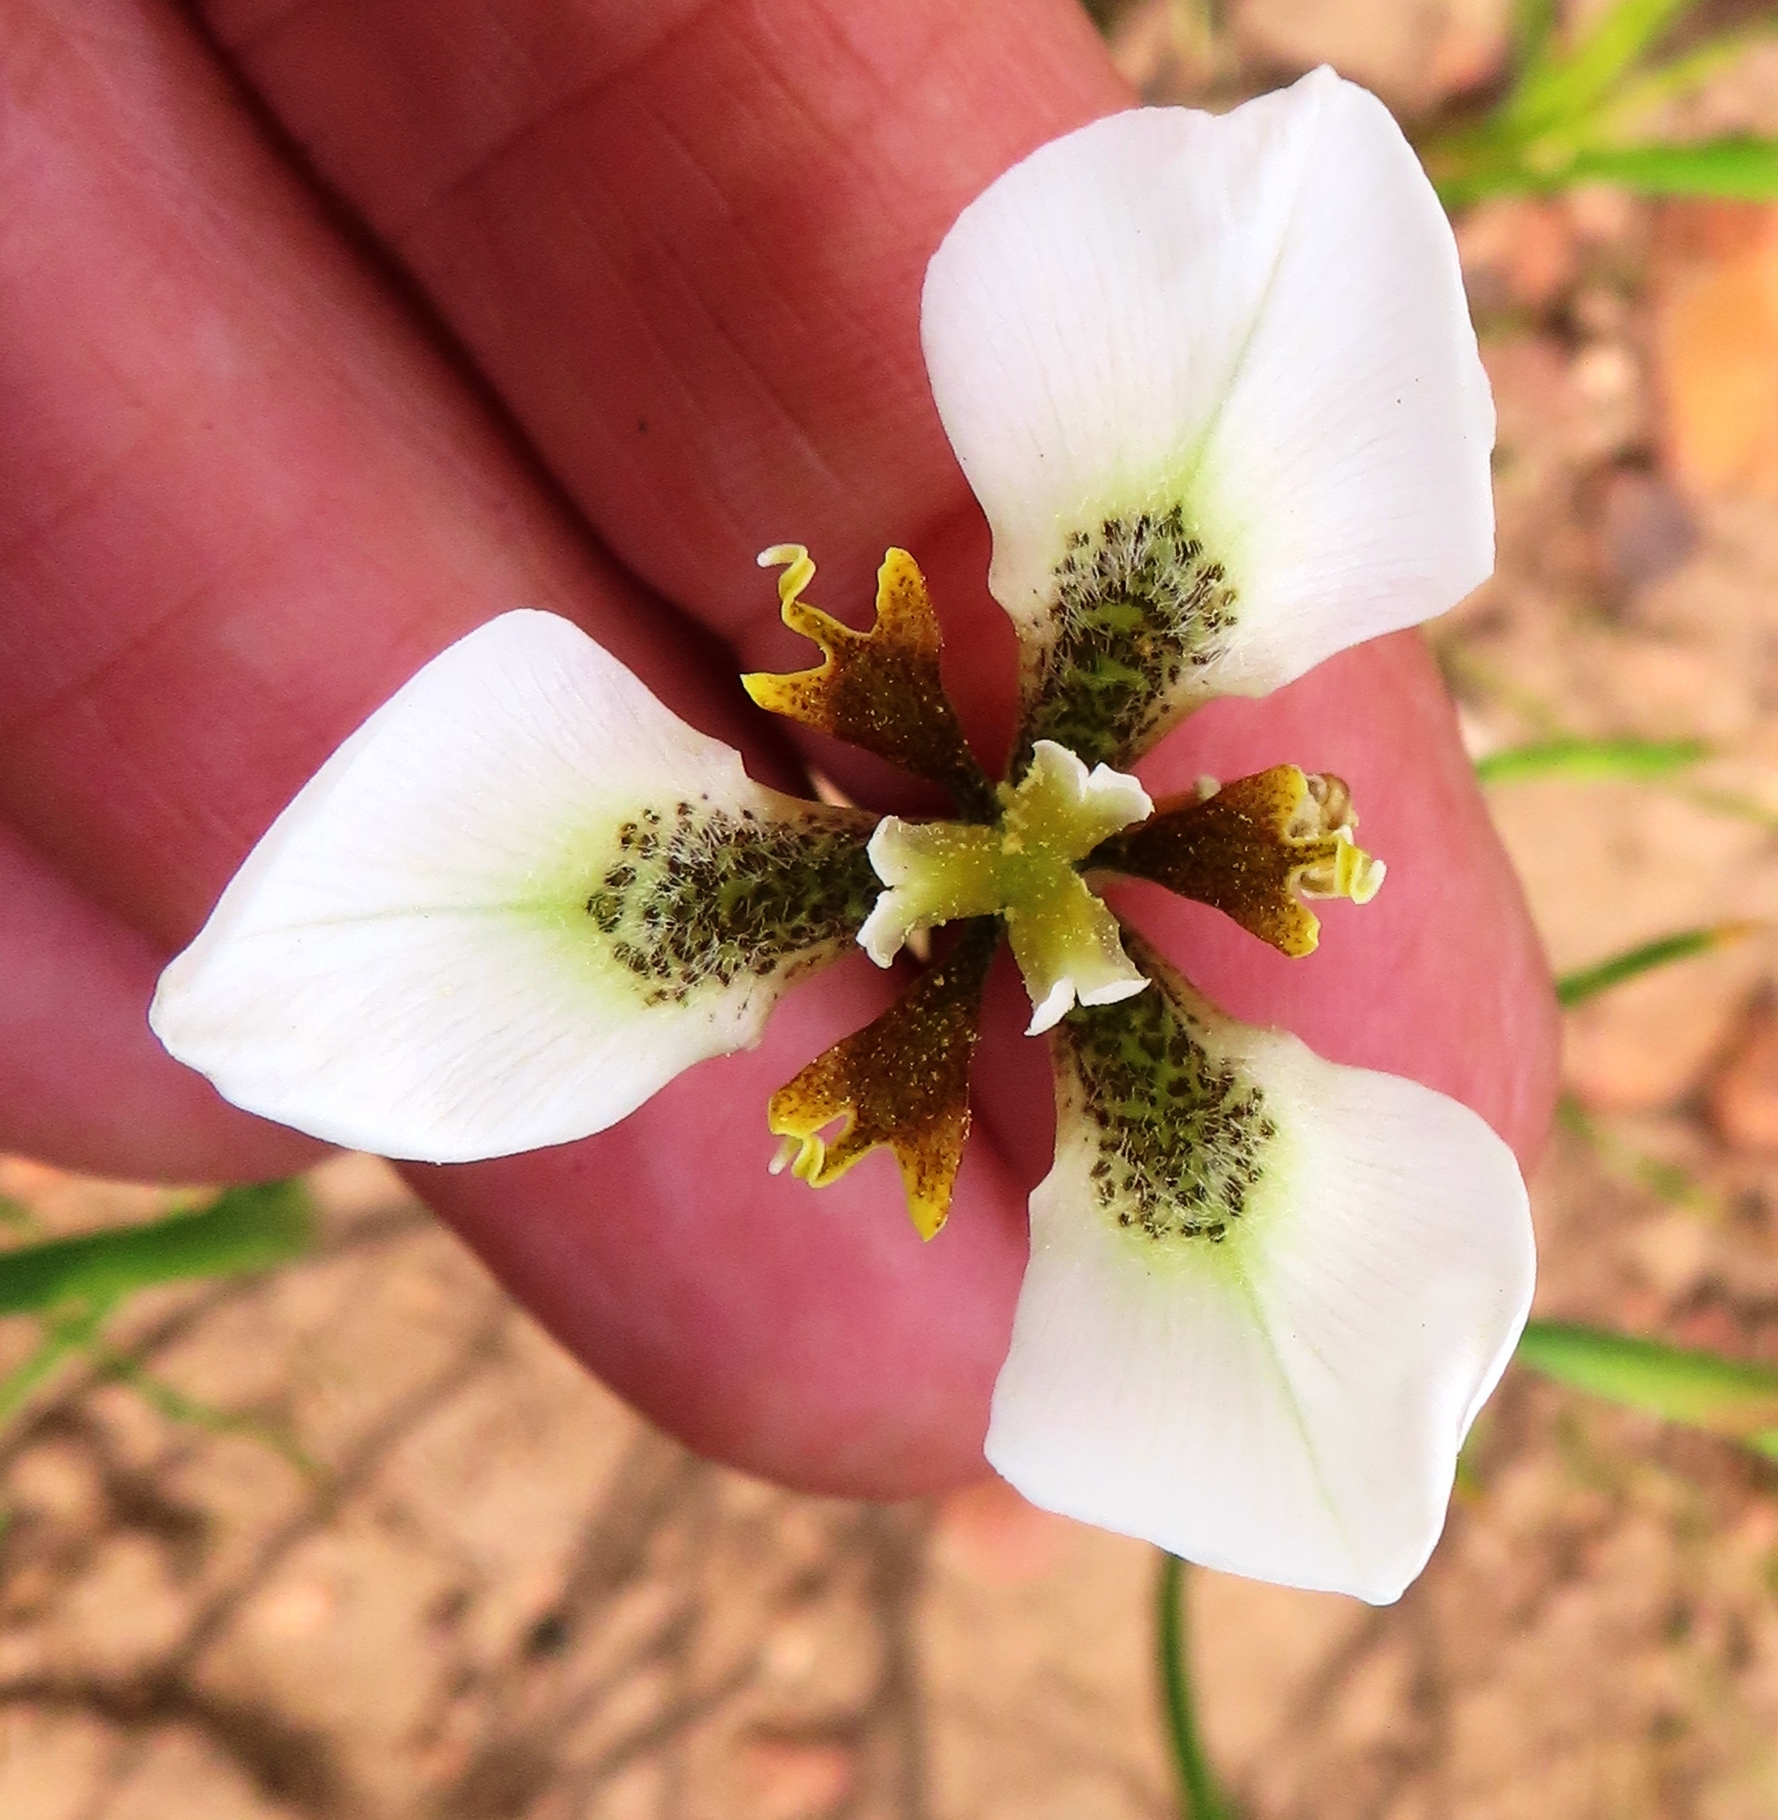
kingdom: Plantae
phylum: Tracheophyta
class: Liliopsida
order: Asparagales
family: Iridaceae
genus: Moraea
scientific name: Moraea tricuspidata
